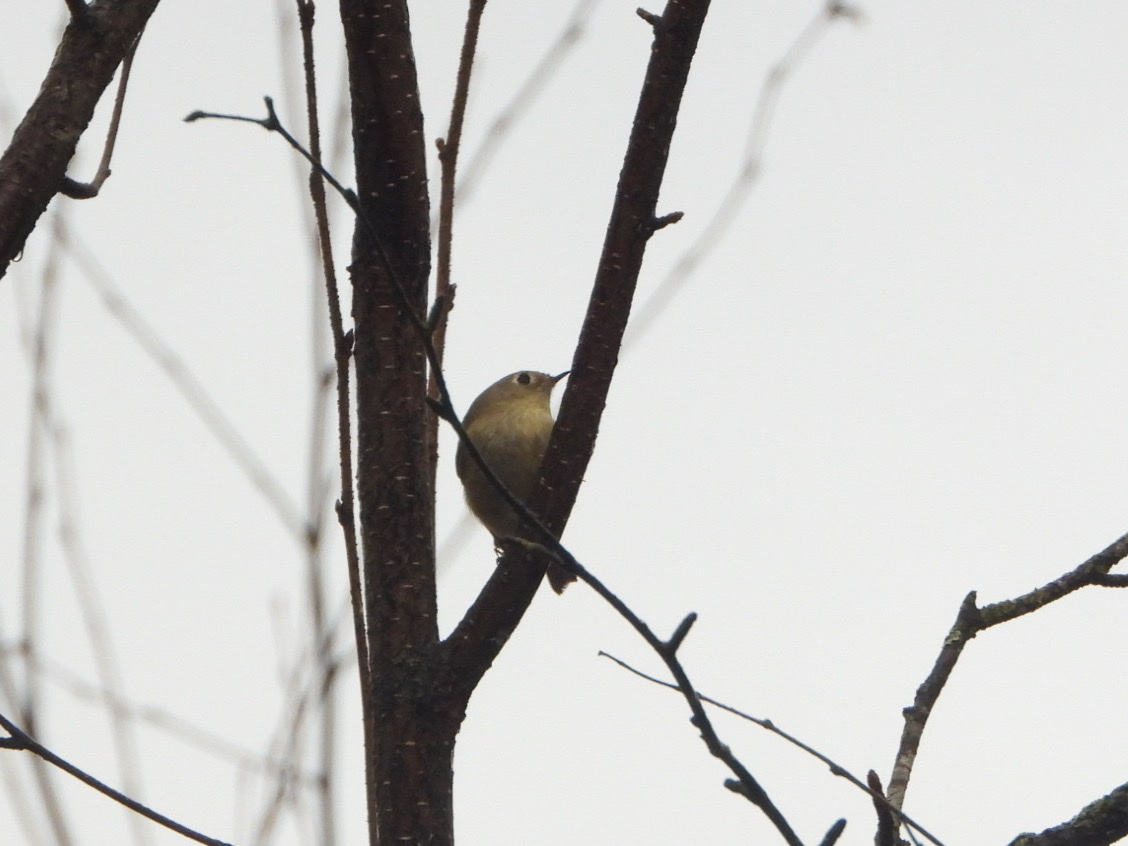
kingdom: Animalia
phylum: Chordata
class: Aves
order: Passeriformes
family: Regulidae
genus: Regulus
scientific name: Regulus calendula
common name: Ruby-crowned kinglet
